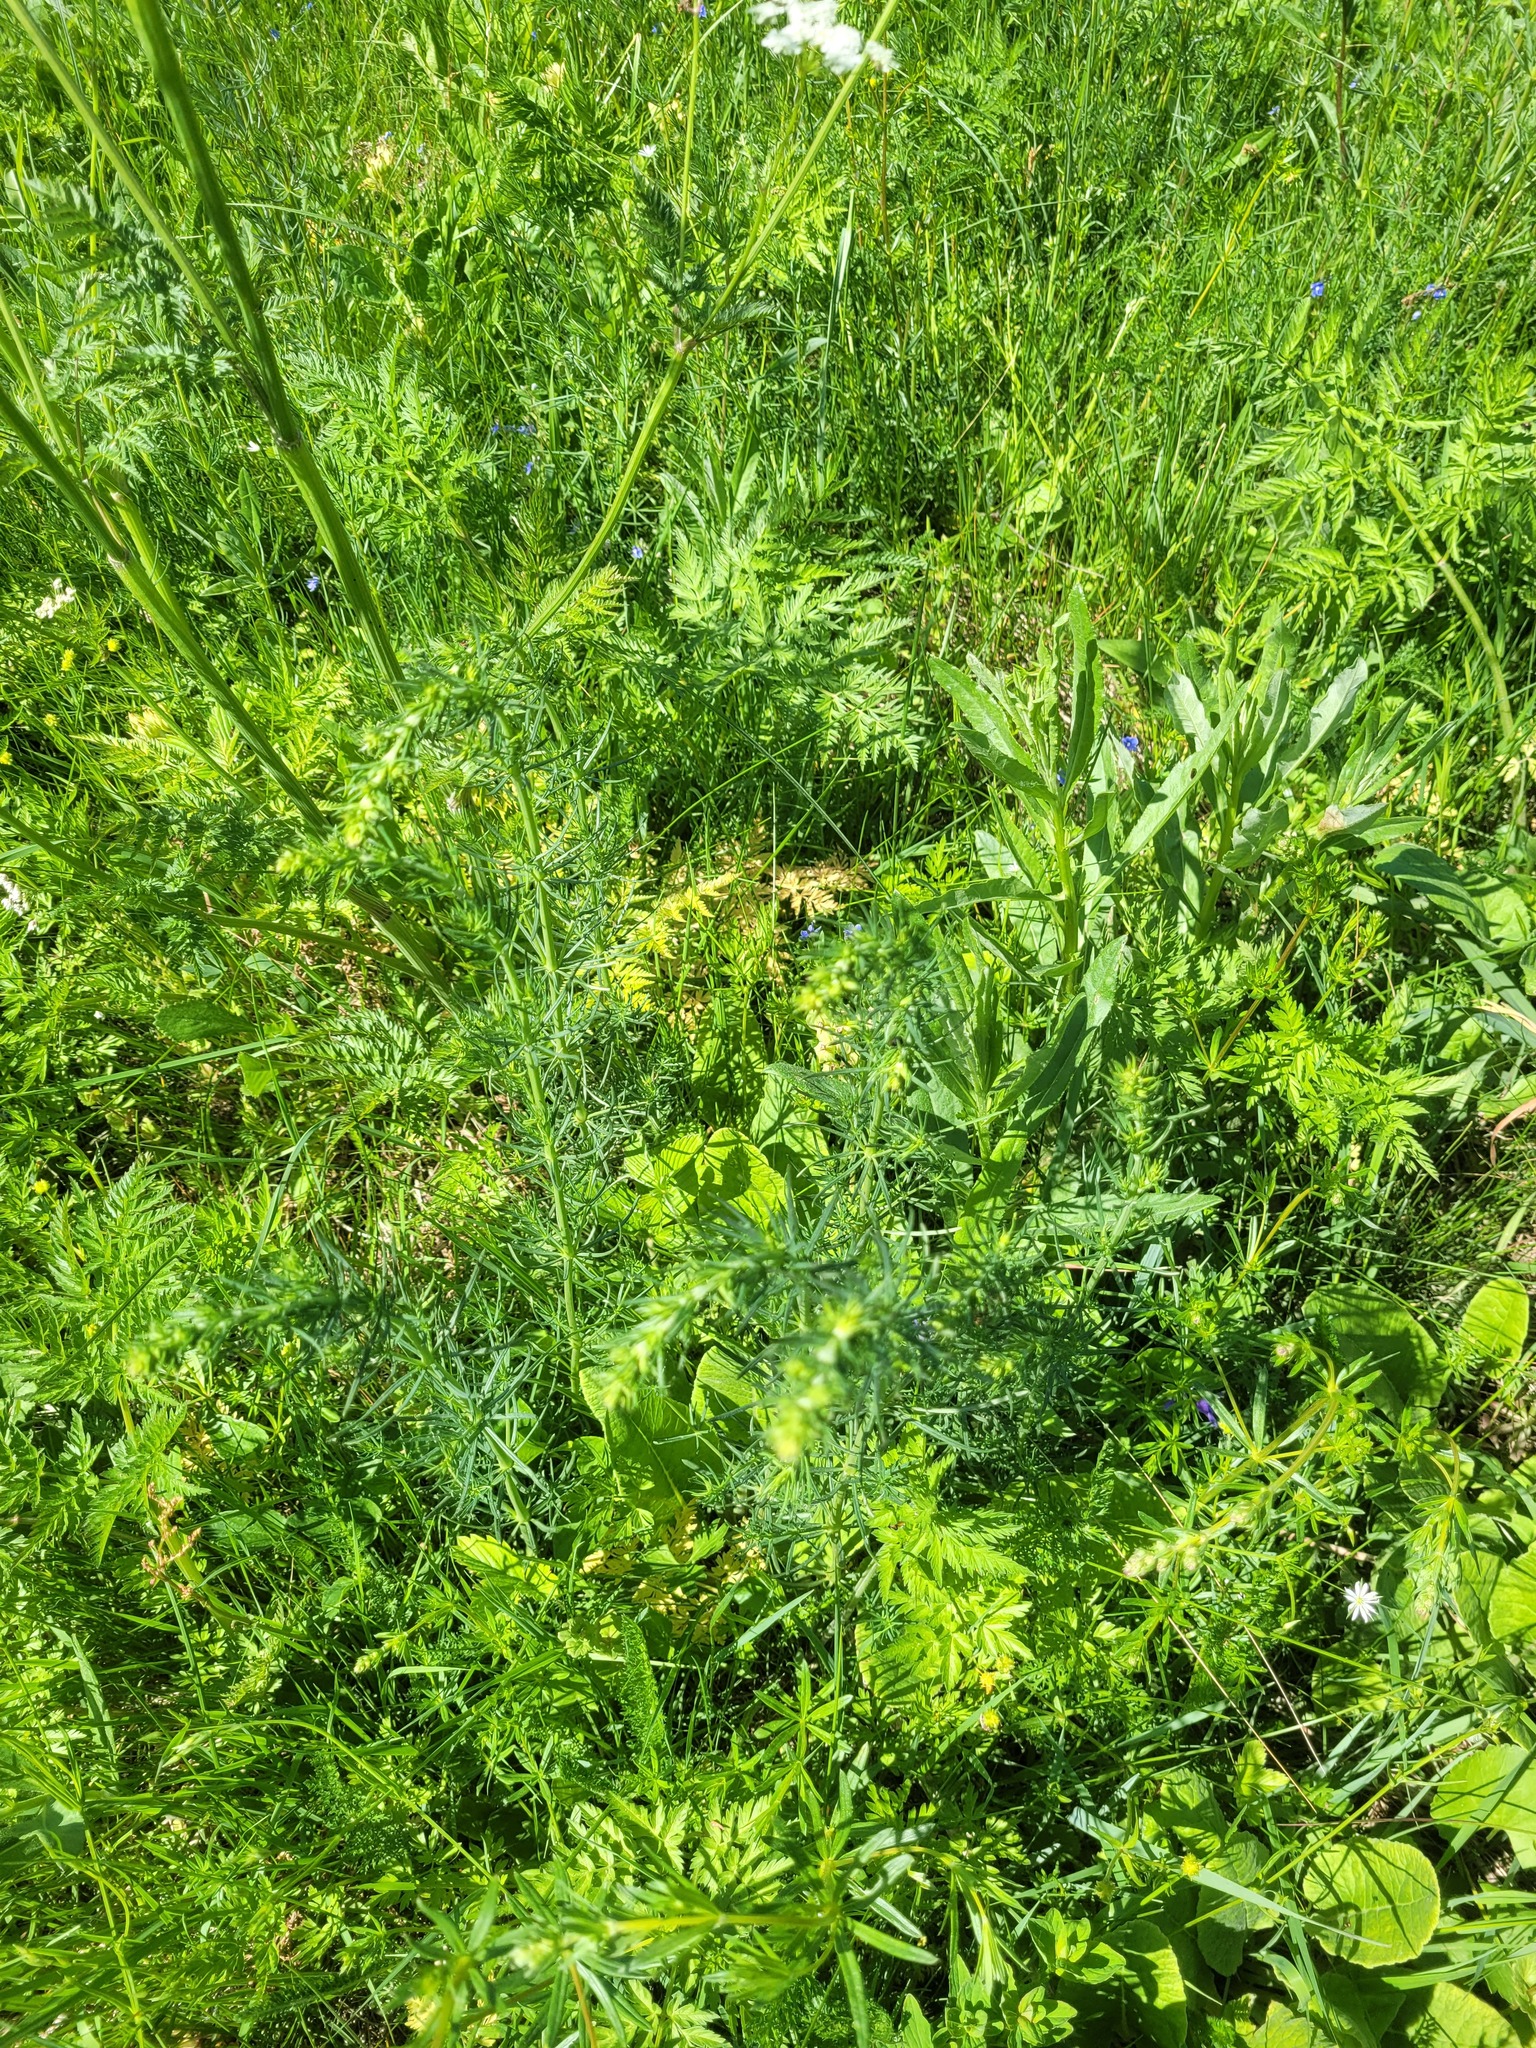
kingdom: Plantae
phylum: Tracheophyta
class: Magnoliopsida
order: Gentianales
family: Rubiaceae
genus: Galium
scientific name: Galium verum
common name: Lady's bedstraw
